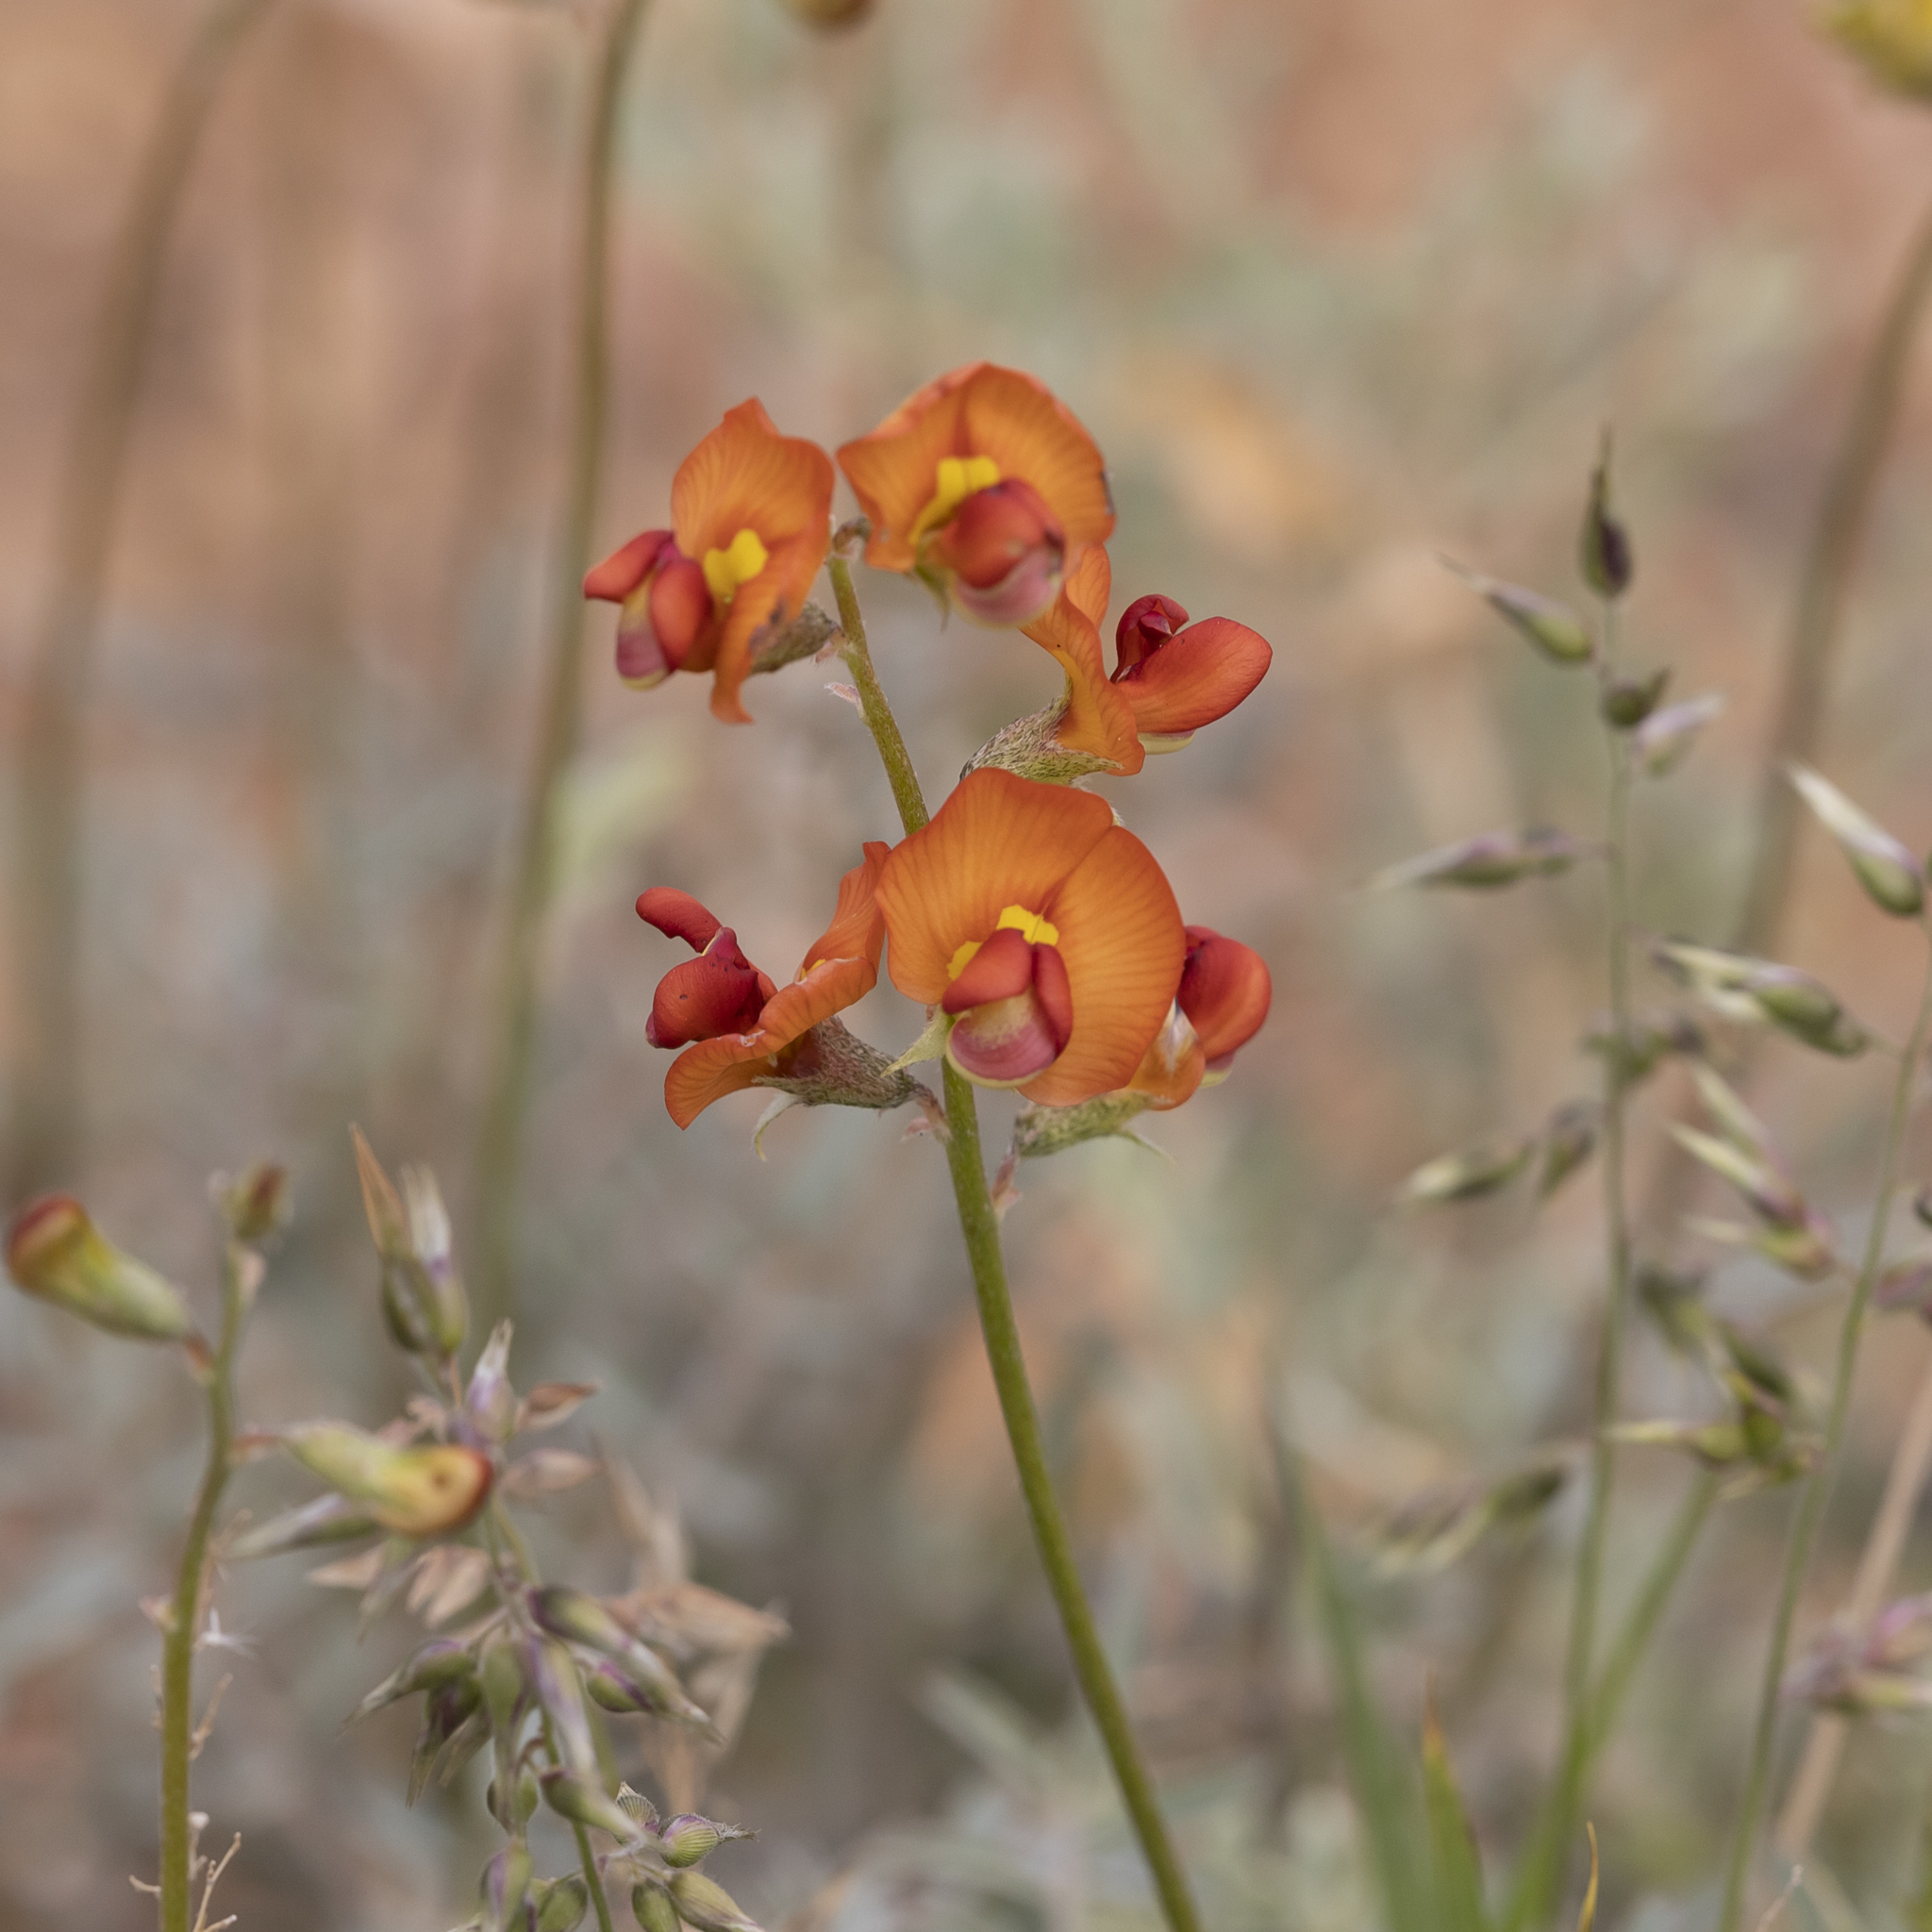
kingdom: Plantae
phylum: Tracheophyta
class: Magnoliopsida
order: Fabales
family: Fabaceae
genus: Swainsona
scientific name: Swainsona stipularis
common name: Orange darling-pea
